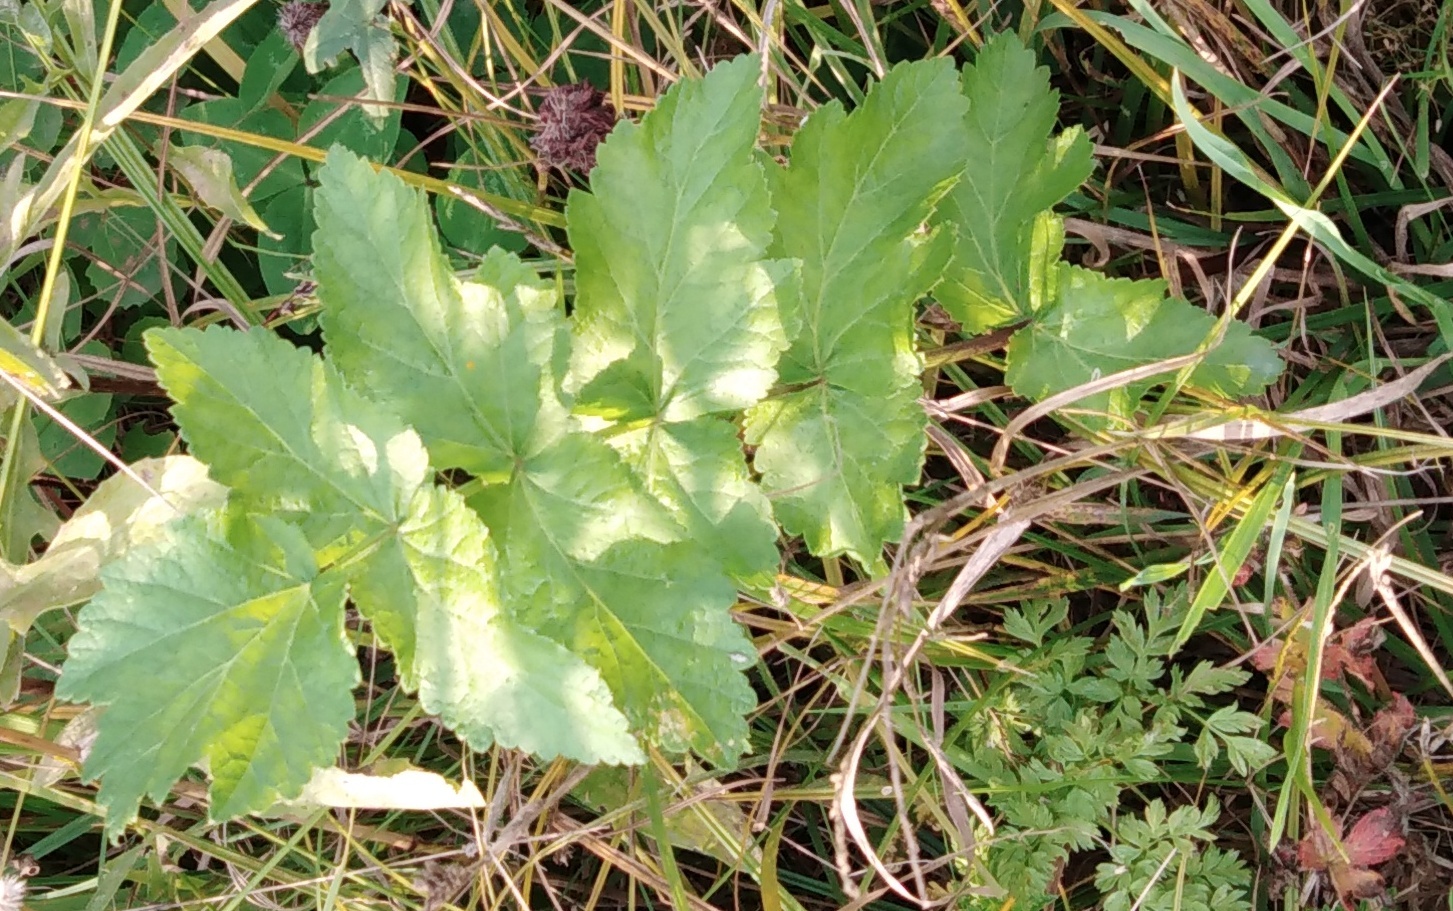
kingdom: Plantae
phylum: Tracheophyta
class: Magnoliopsida
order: Apiales
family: Apiaceae
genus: Pastinaca
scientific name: Pastinaca sativa
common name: Wild parsnip
